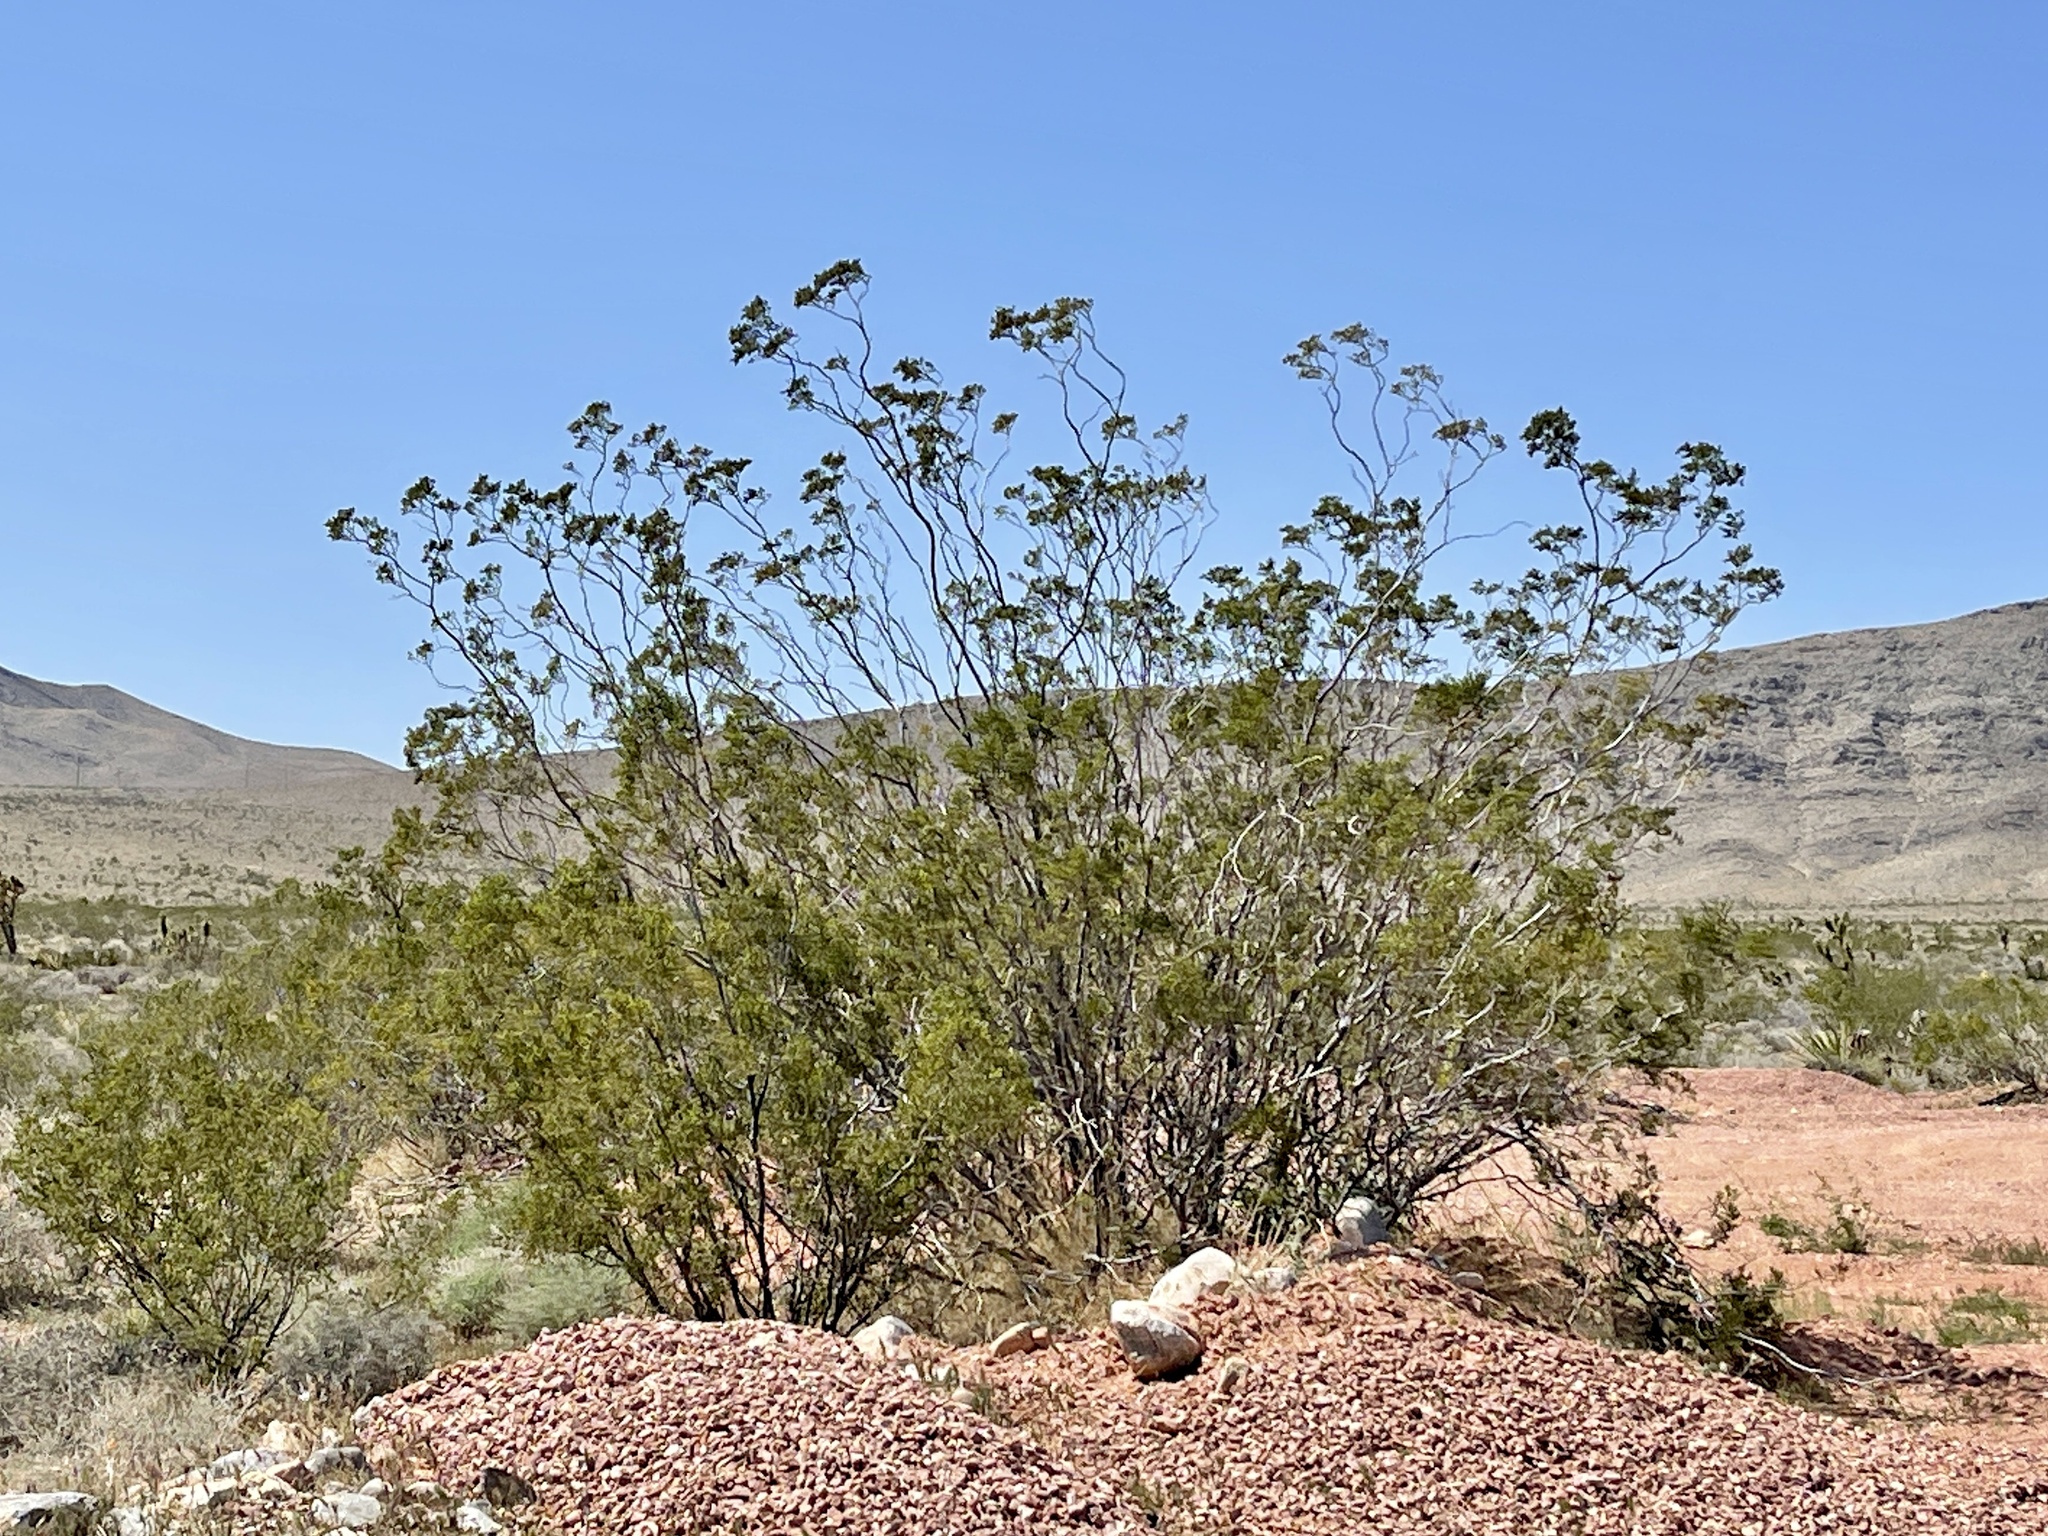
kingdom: Plantae
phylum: Tracheophyta
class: Magnoliopsida
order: Zygophyllales
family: Zygophyllaceae
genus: Larrea
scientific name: Larrea tridentata
